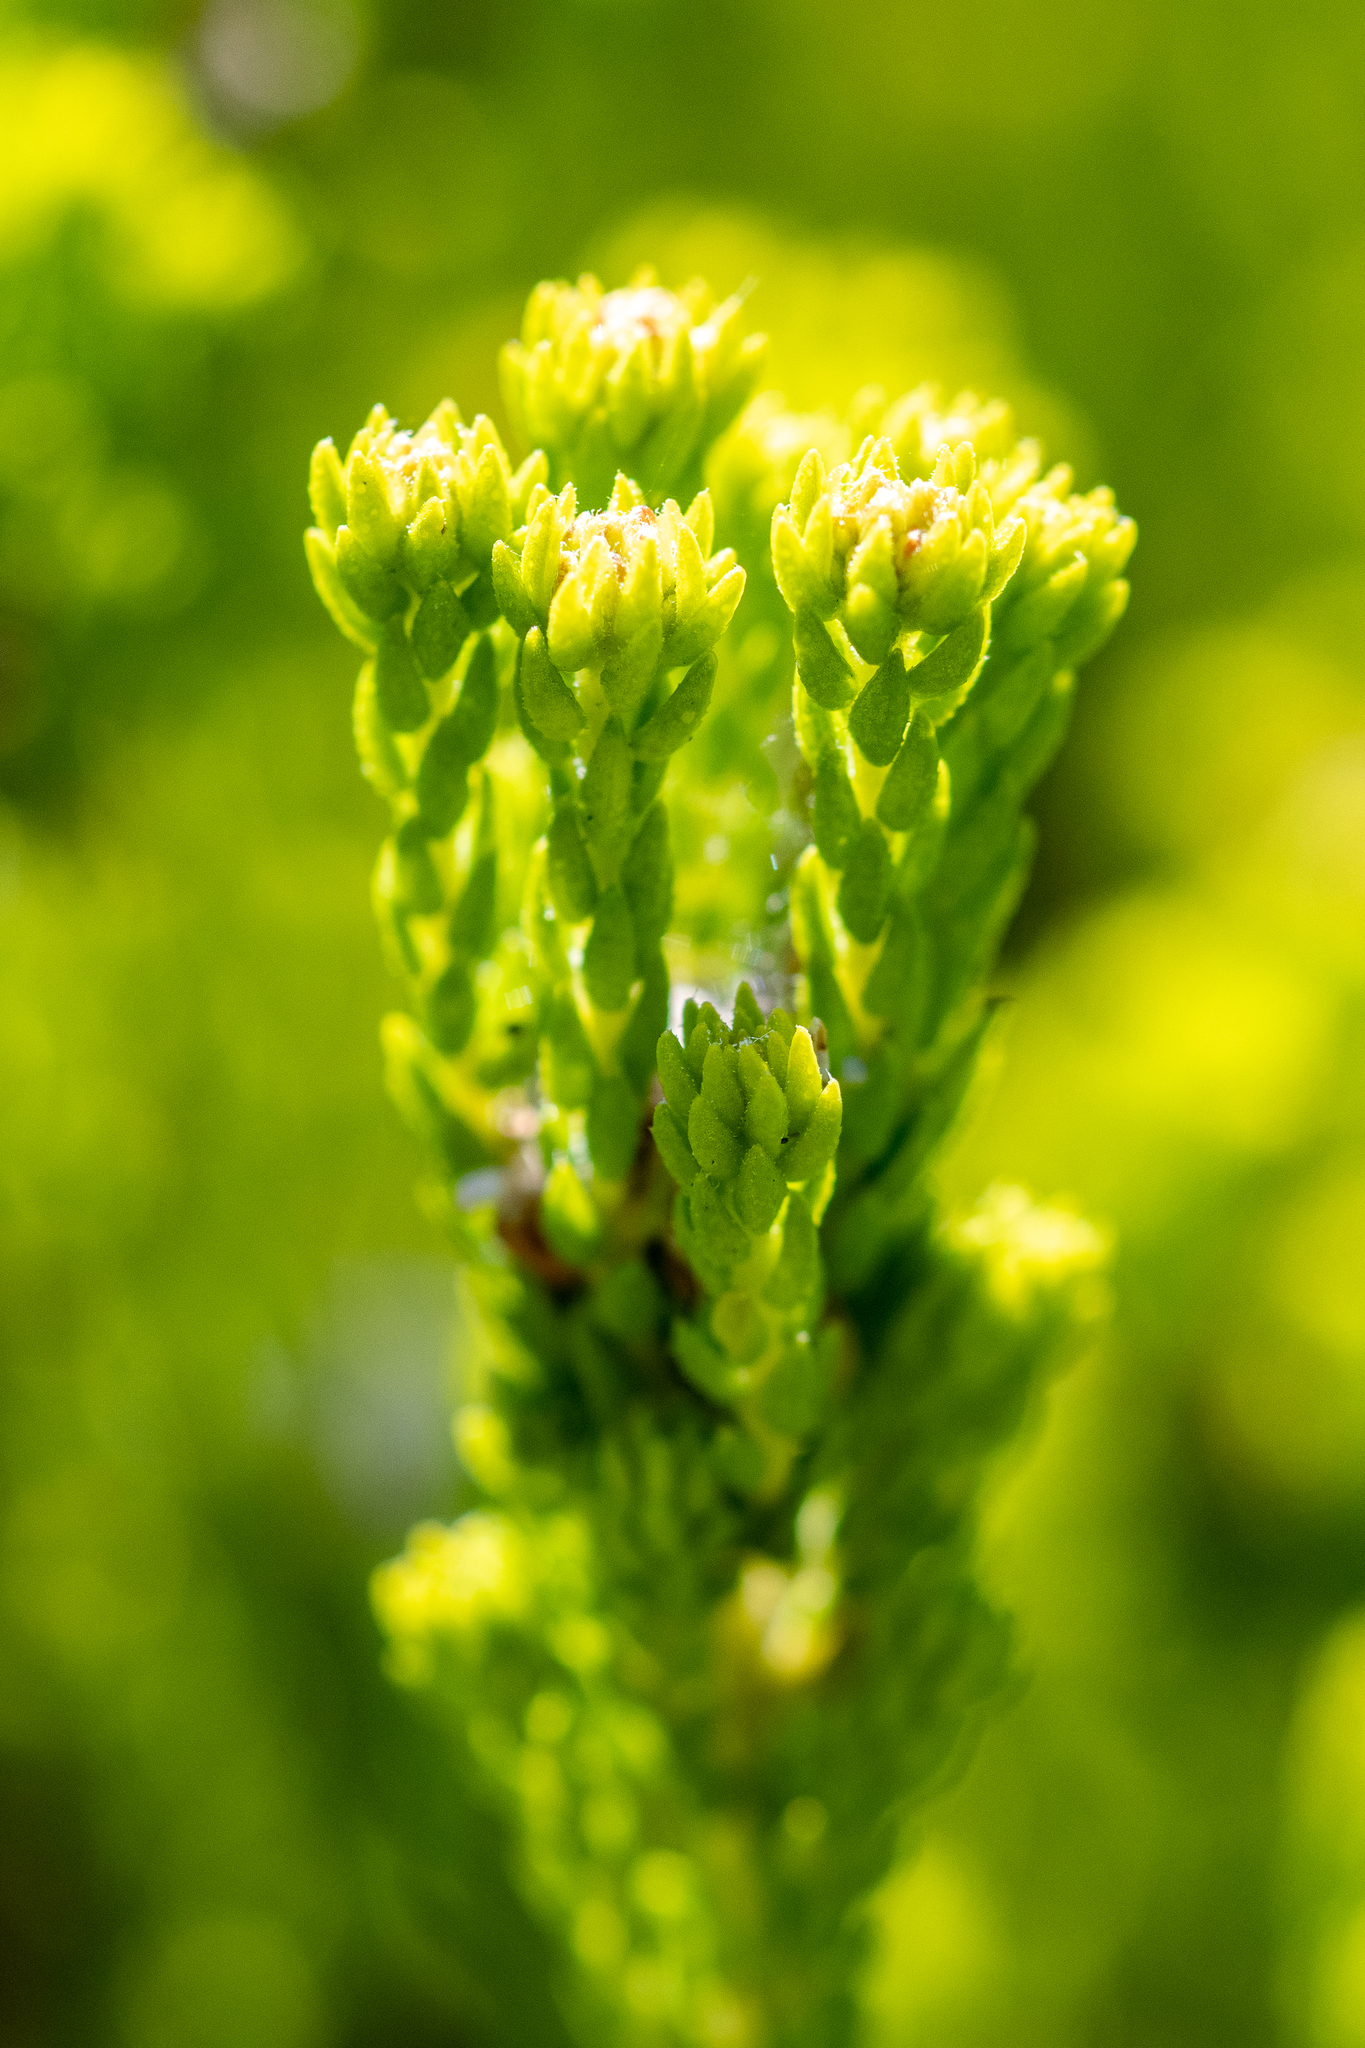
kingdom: Plantae
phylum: Tracheophyta
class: Magnoliopsida
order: Sapindales
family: Rutaceae
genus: Agathosma
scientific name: Agathosma collina
